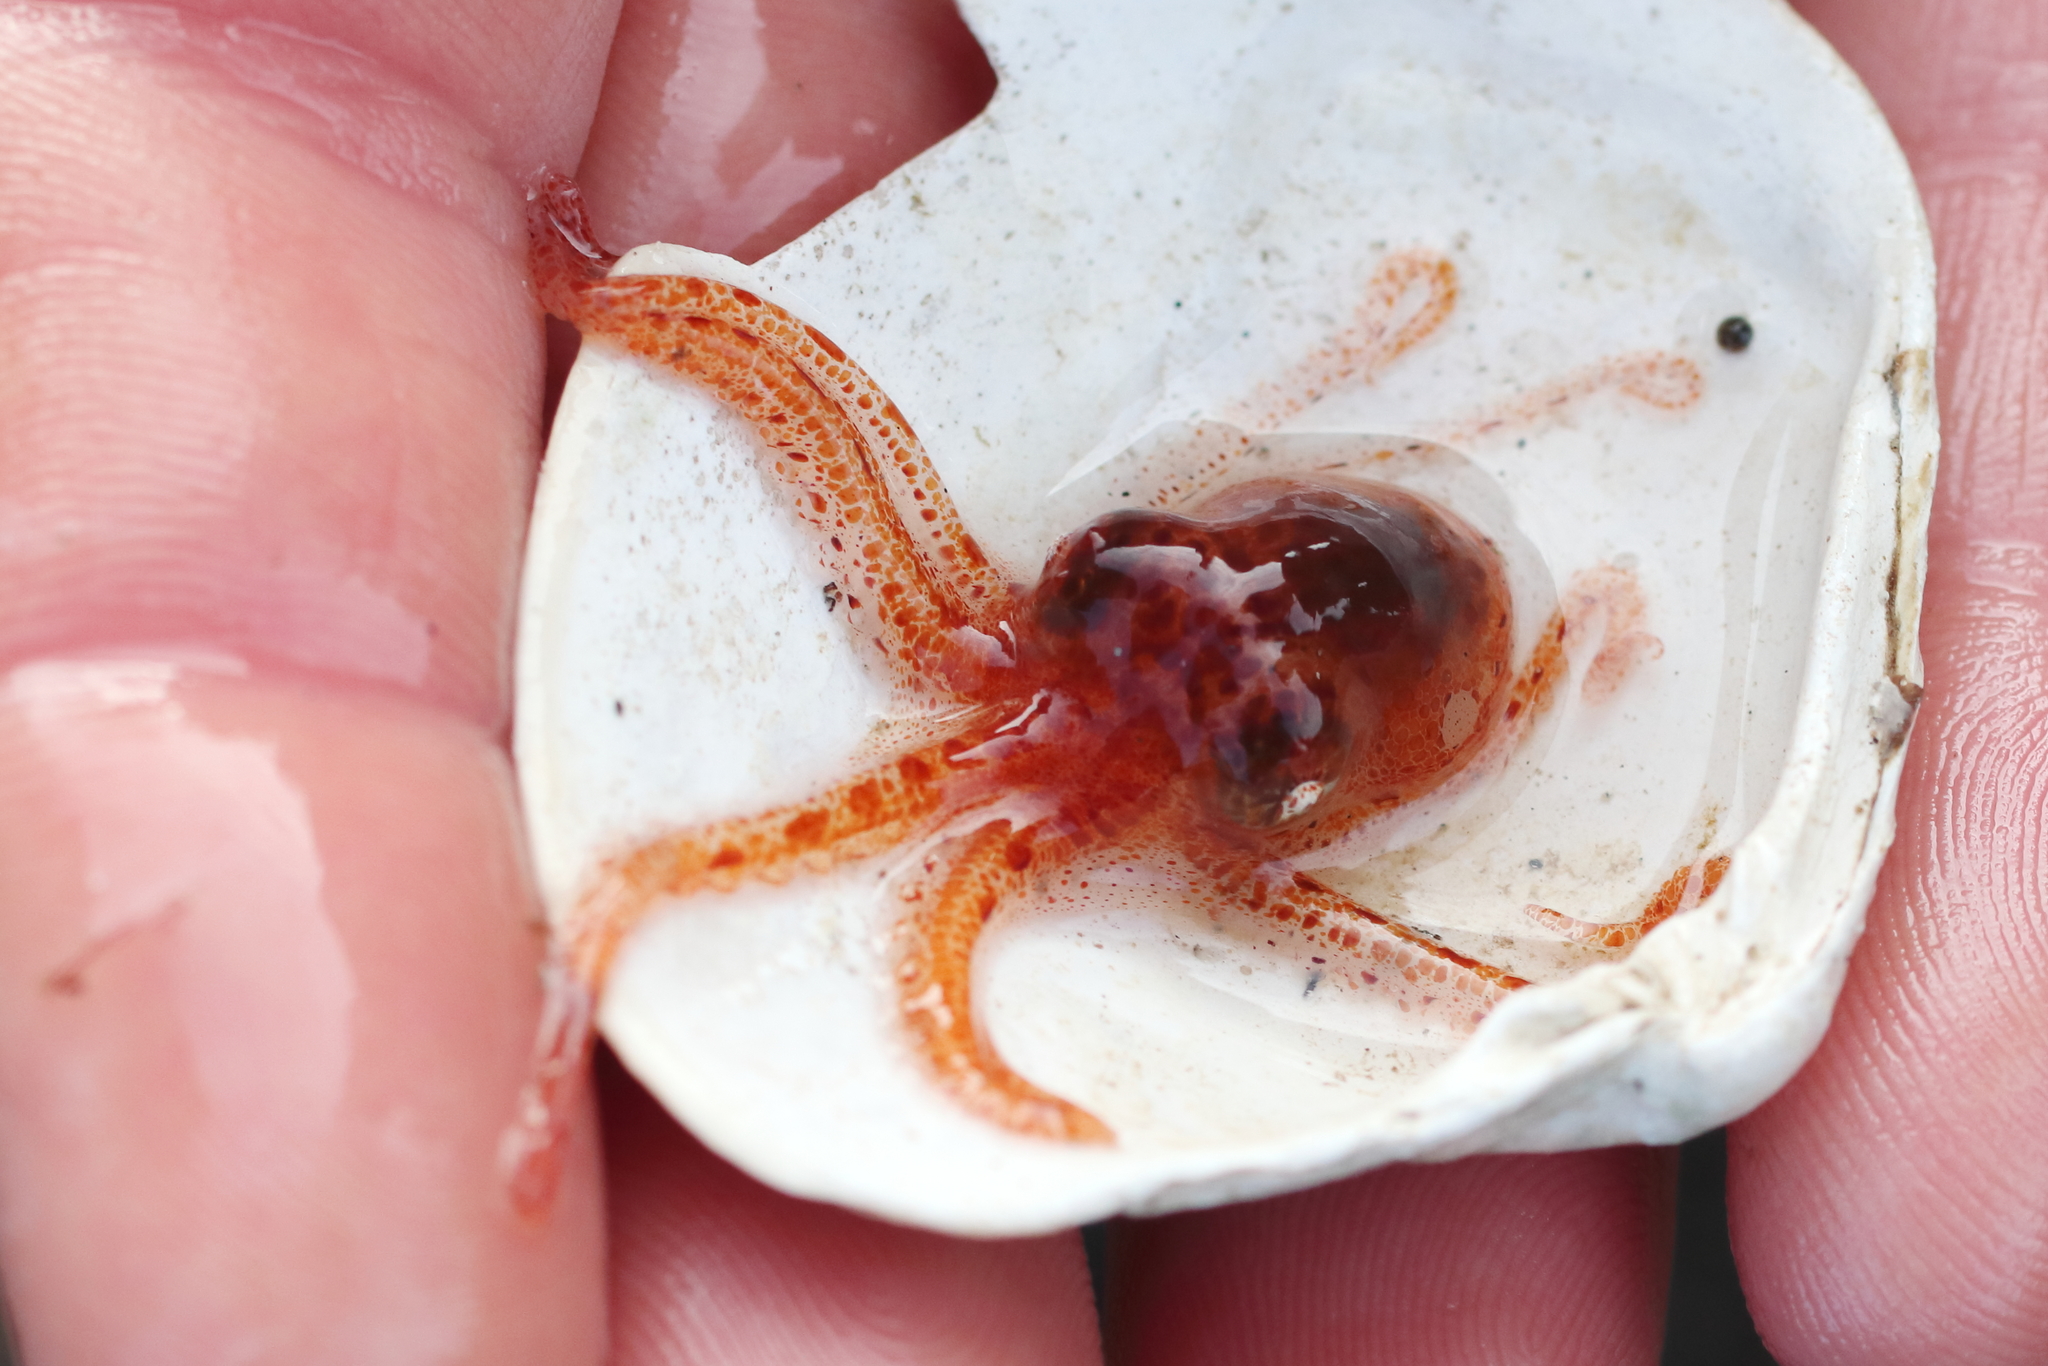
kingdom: Animalia
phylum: Mollusca
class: Cephalopoda
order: Octopoda
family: Enteroctopodidae
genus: Enteroctopus
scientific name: Enteroctopus dofleini
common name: Giant north pacific octopus
